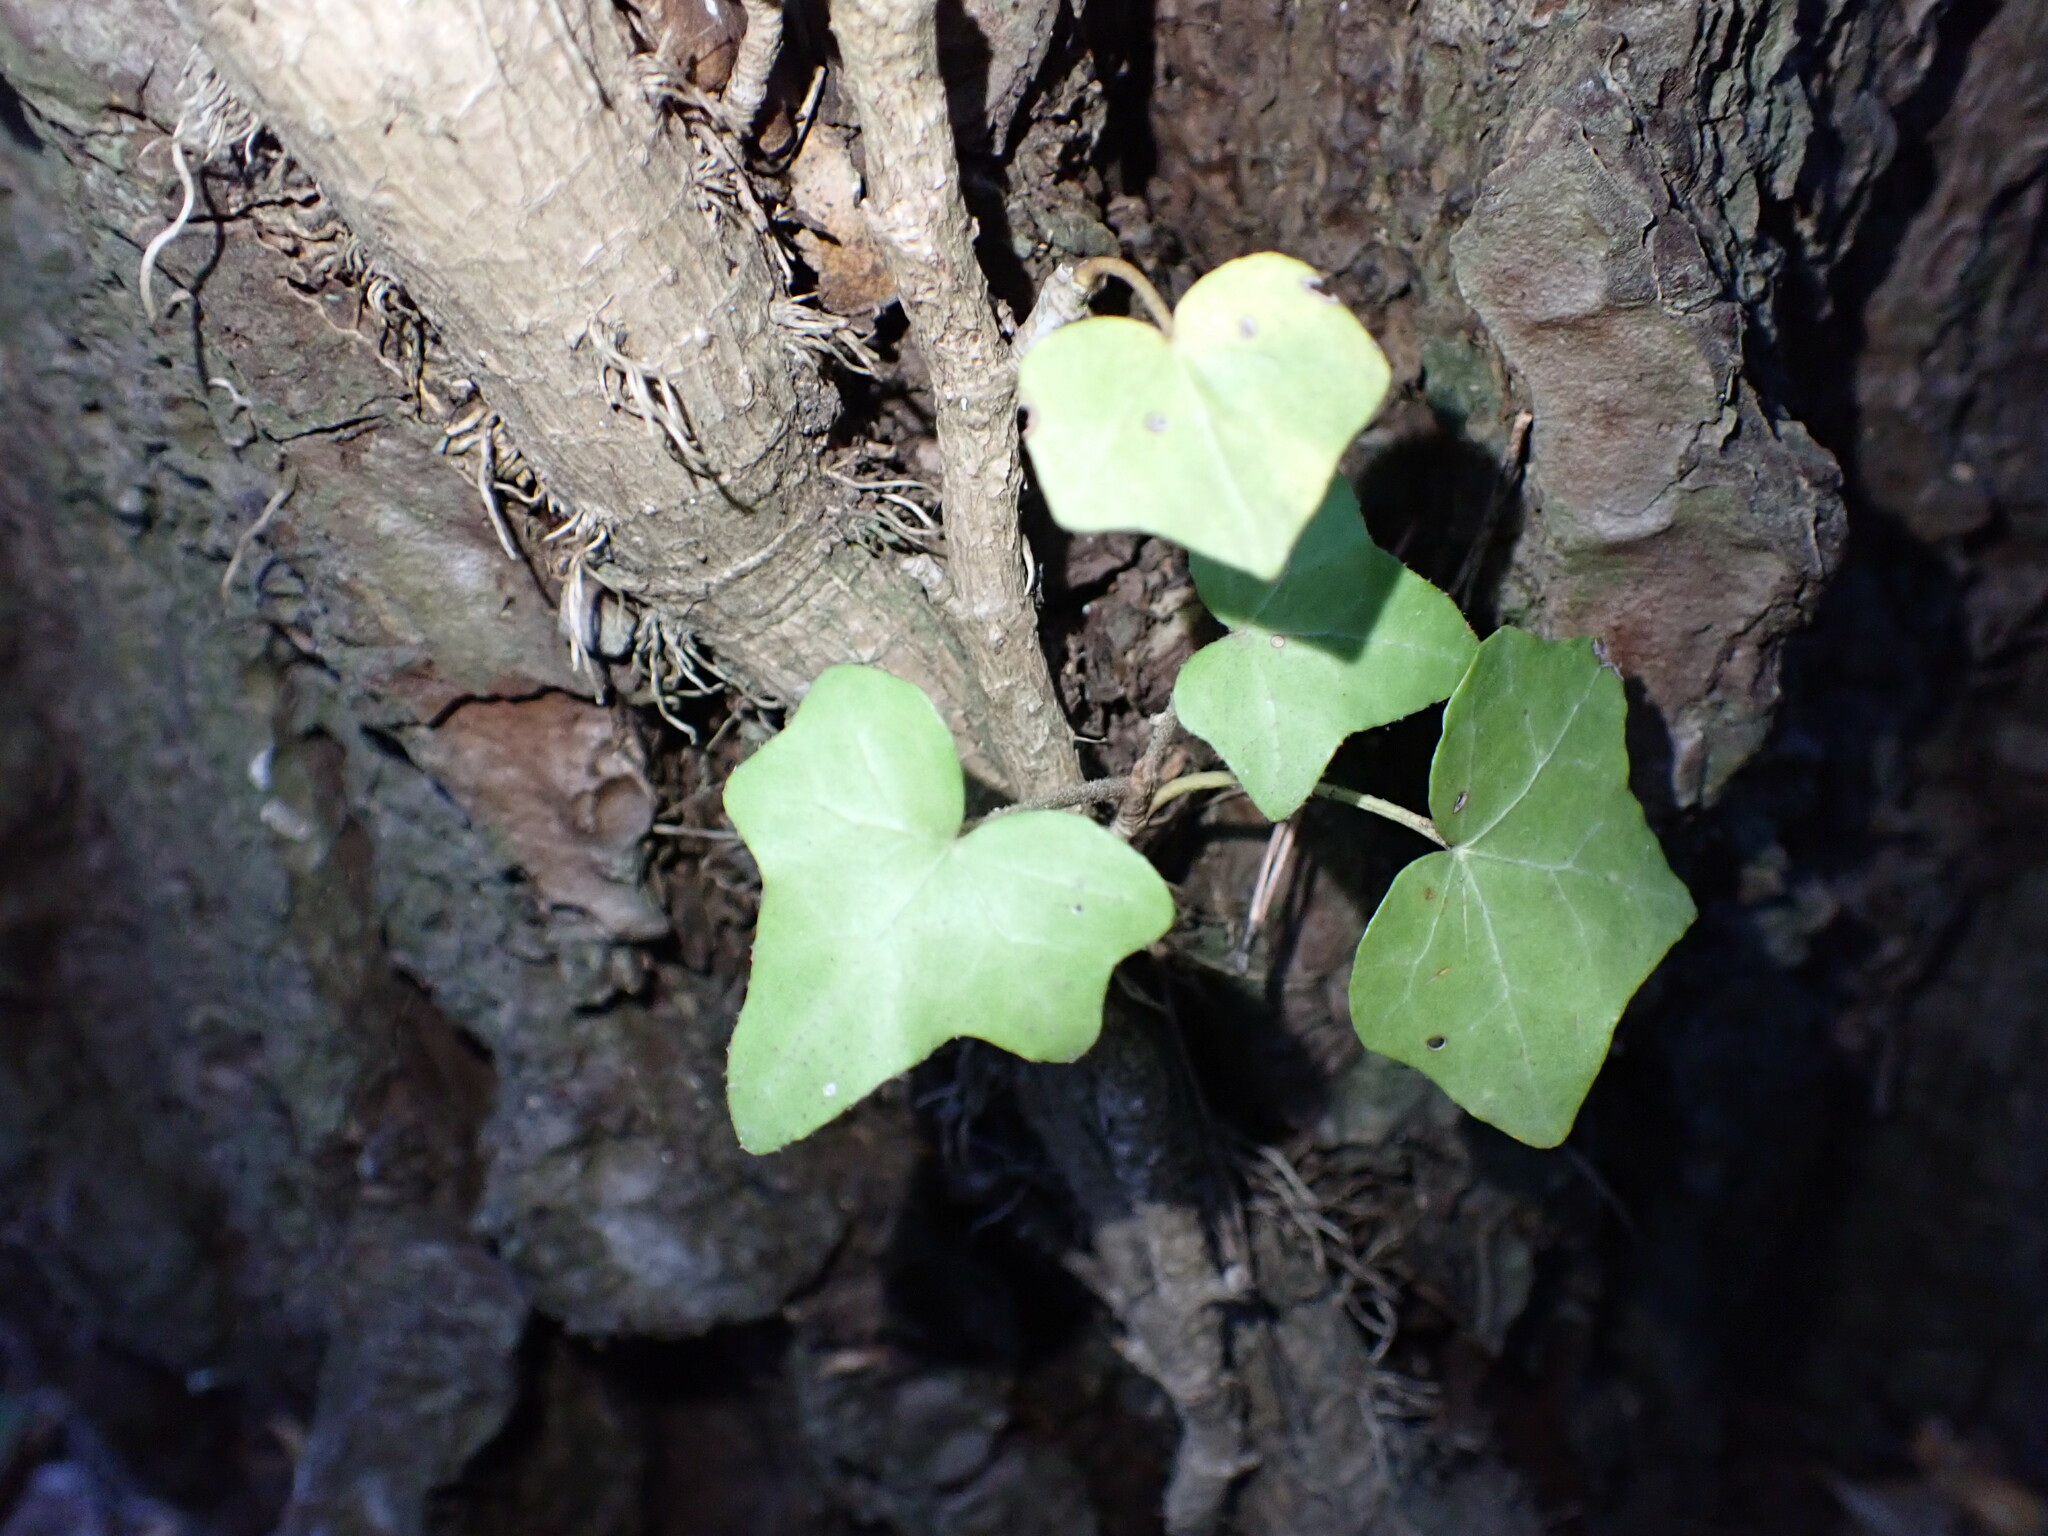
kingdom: Plantae
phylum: Tracheophyta
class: Magnoliopsida
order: Apiales
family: Araliaceae
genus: Hedera
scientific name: Hedera helix
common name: Ivy
